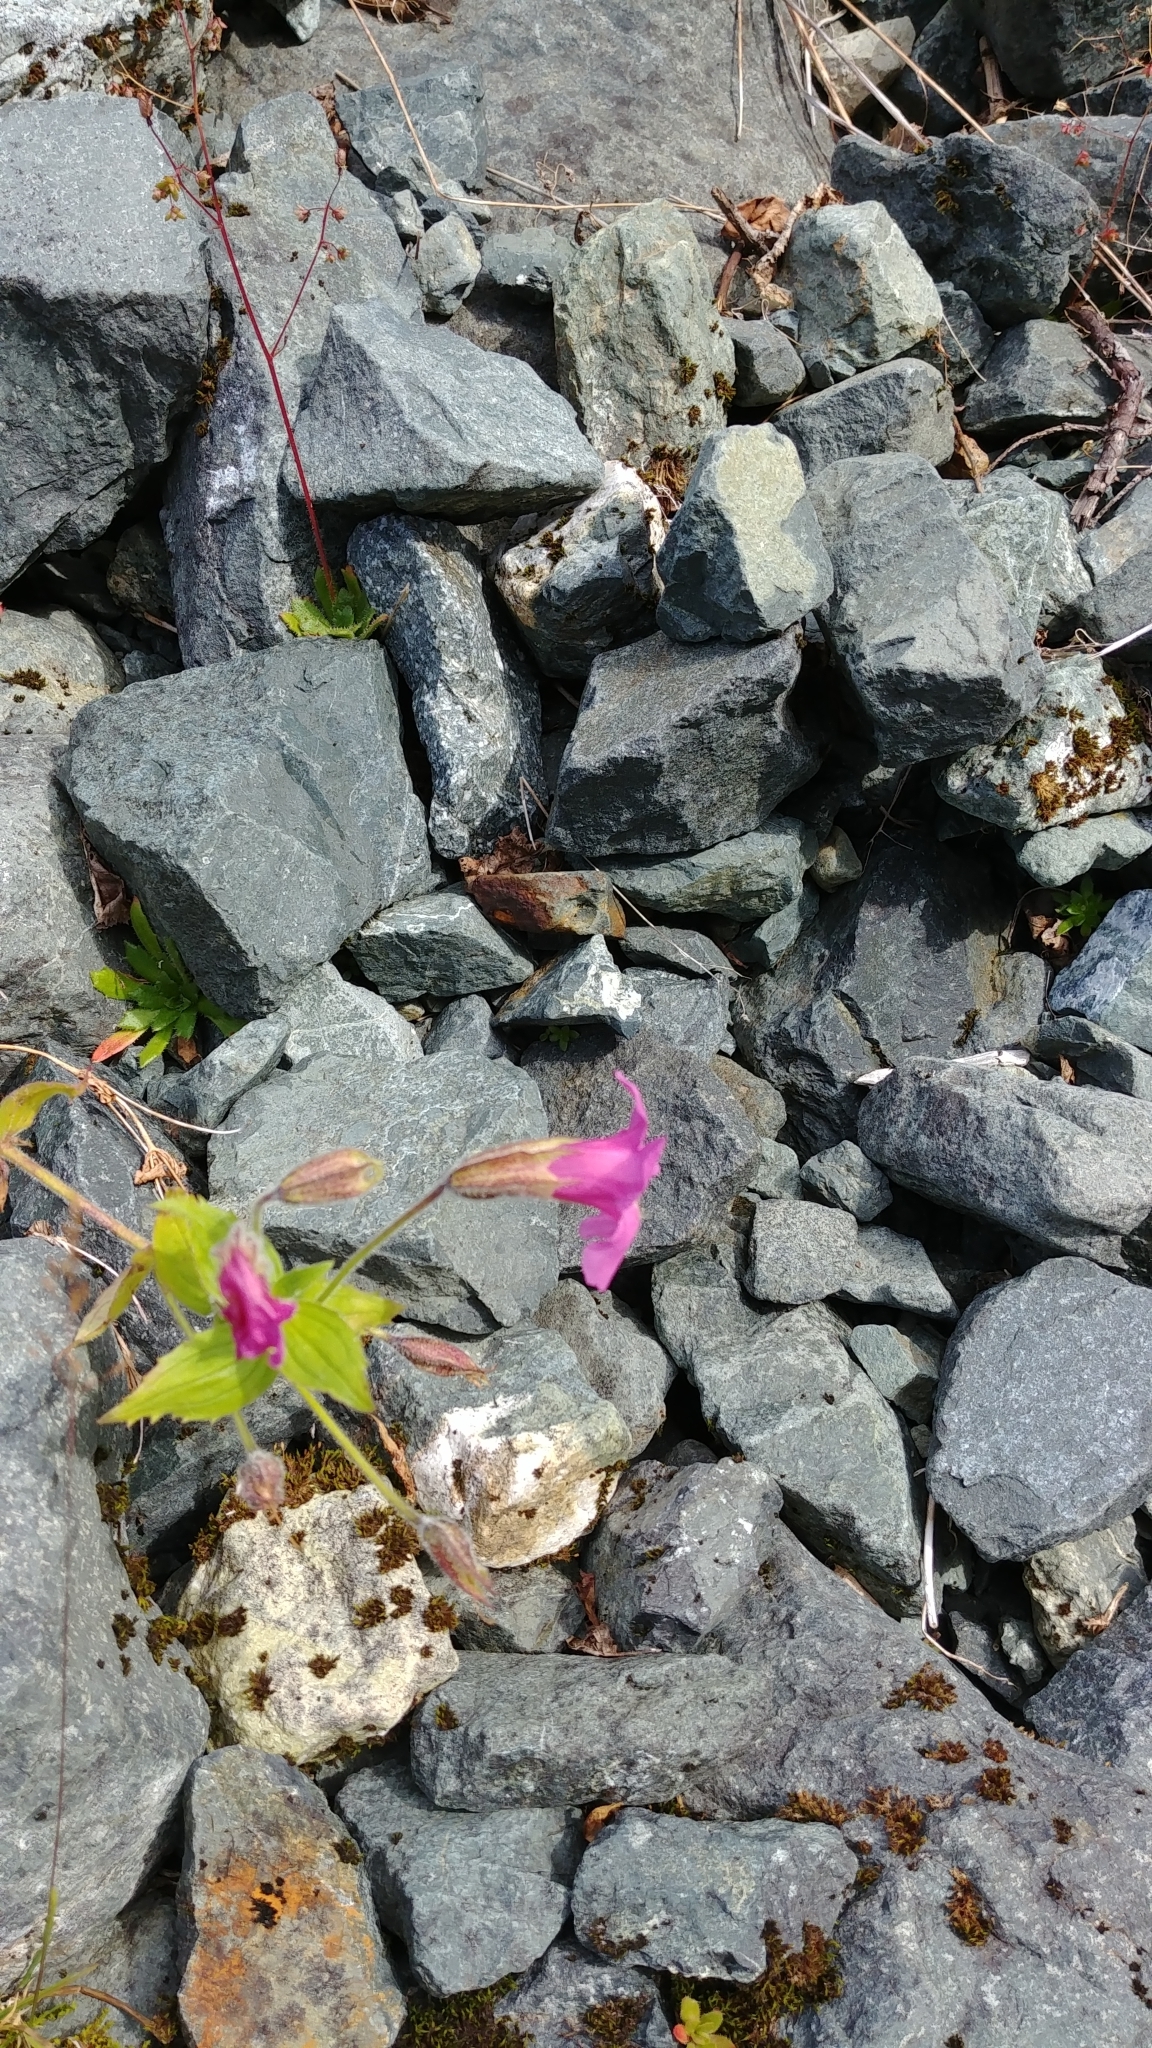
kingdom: Plantae
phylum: Tracheophyta
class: Magnoliopsida
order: Lamiales
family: Phrymaceae
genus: Erythranthe
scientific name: Erythranthe lewisii
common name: Lewis's monkey-flower
